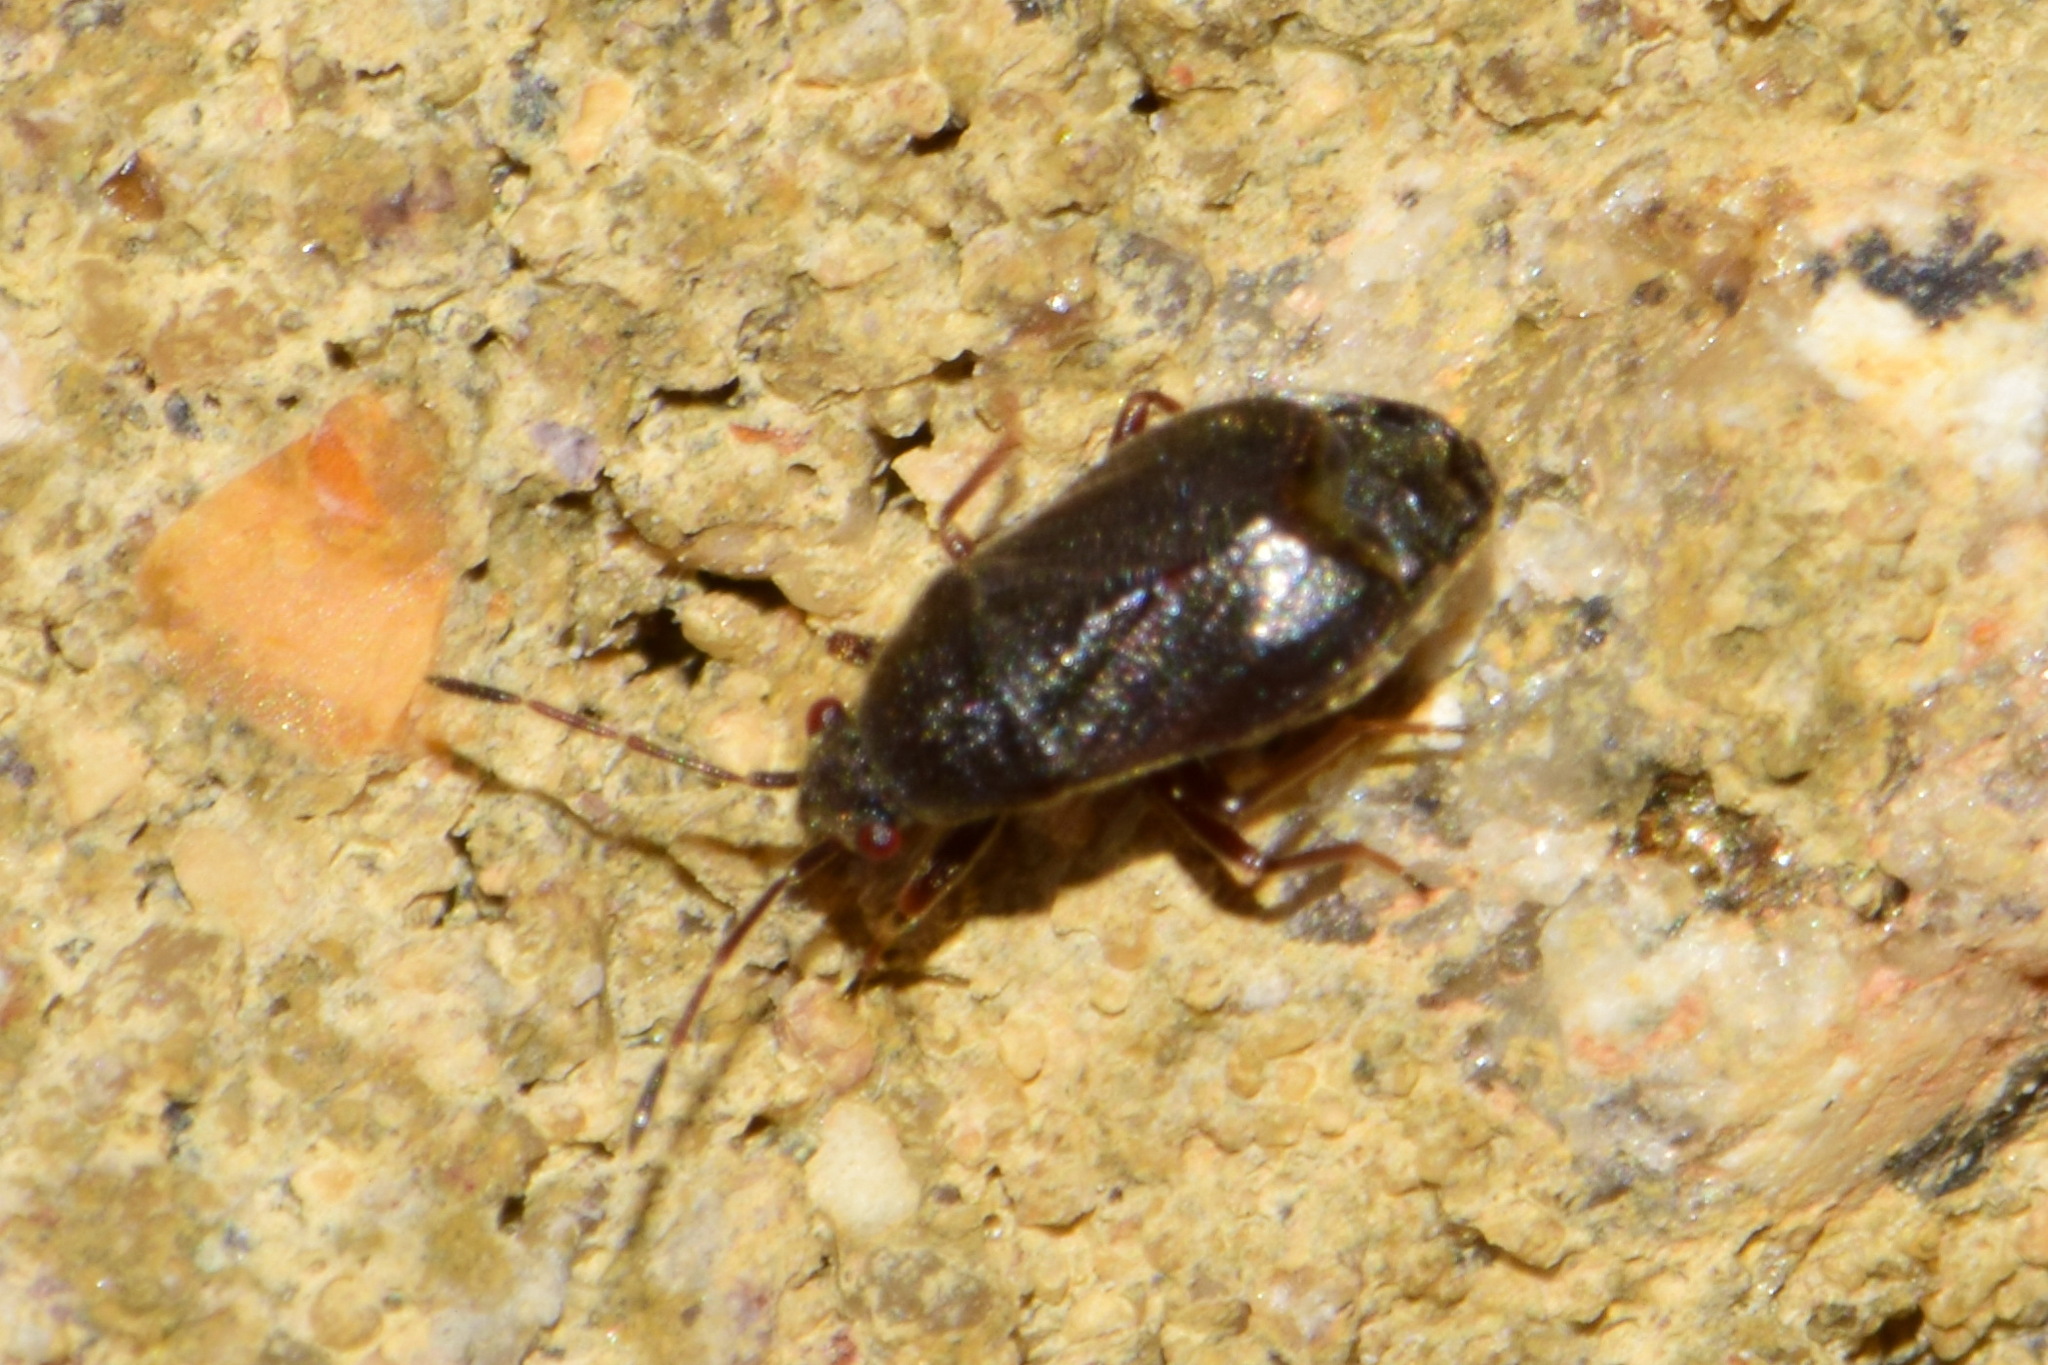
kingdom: Animalia
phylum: Arthropoda
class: Insecta
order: Hemiptera
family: Rhyparochromidae
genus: Stygnocoris
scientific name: Stygnocoris rusticus
